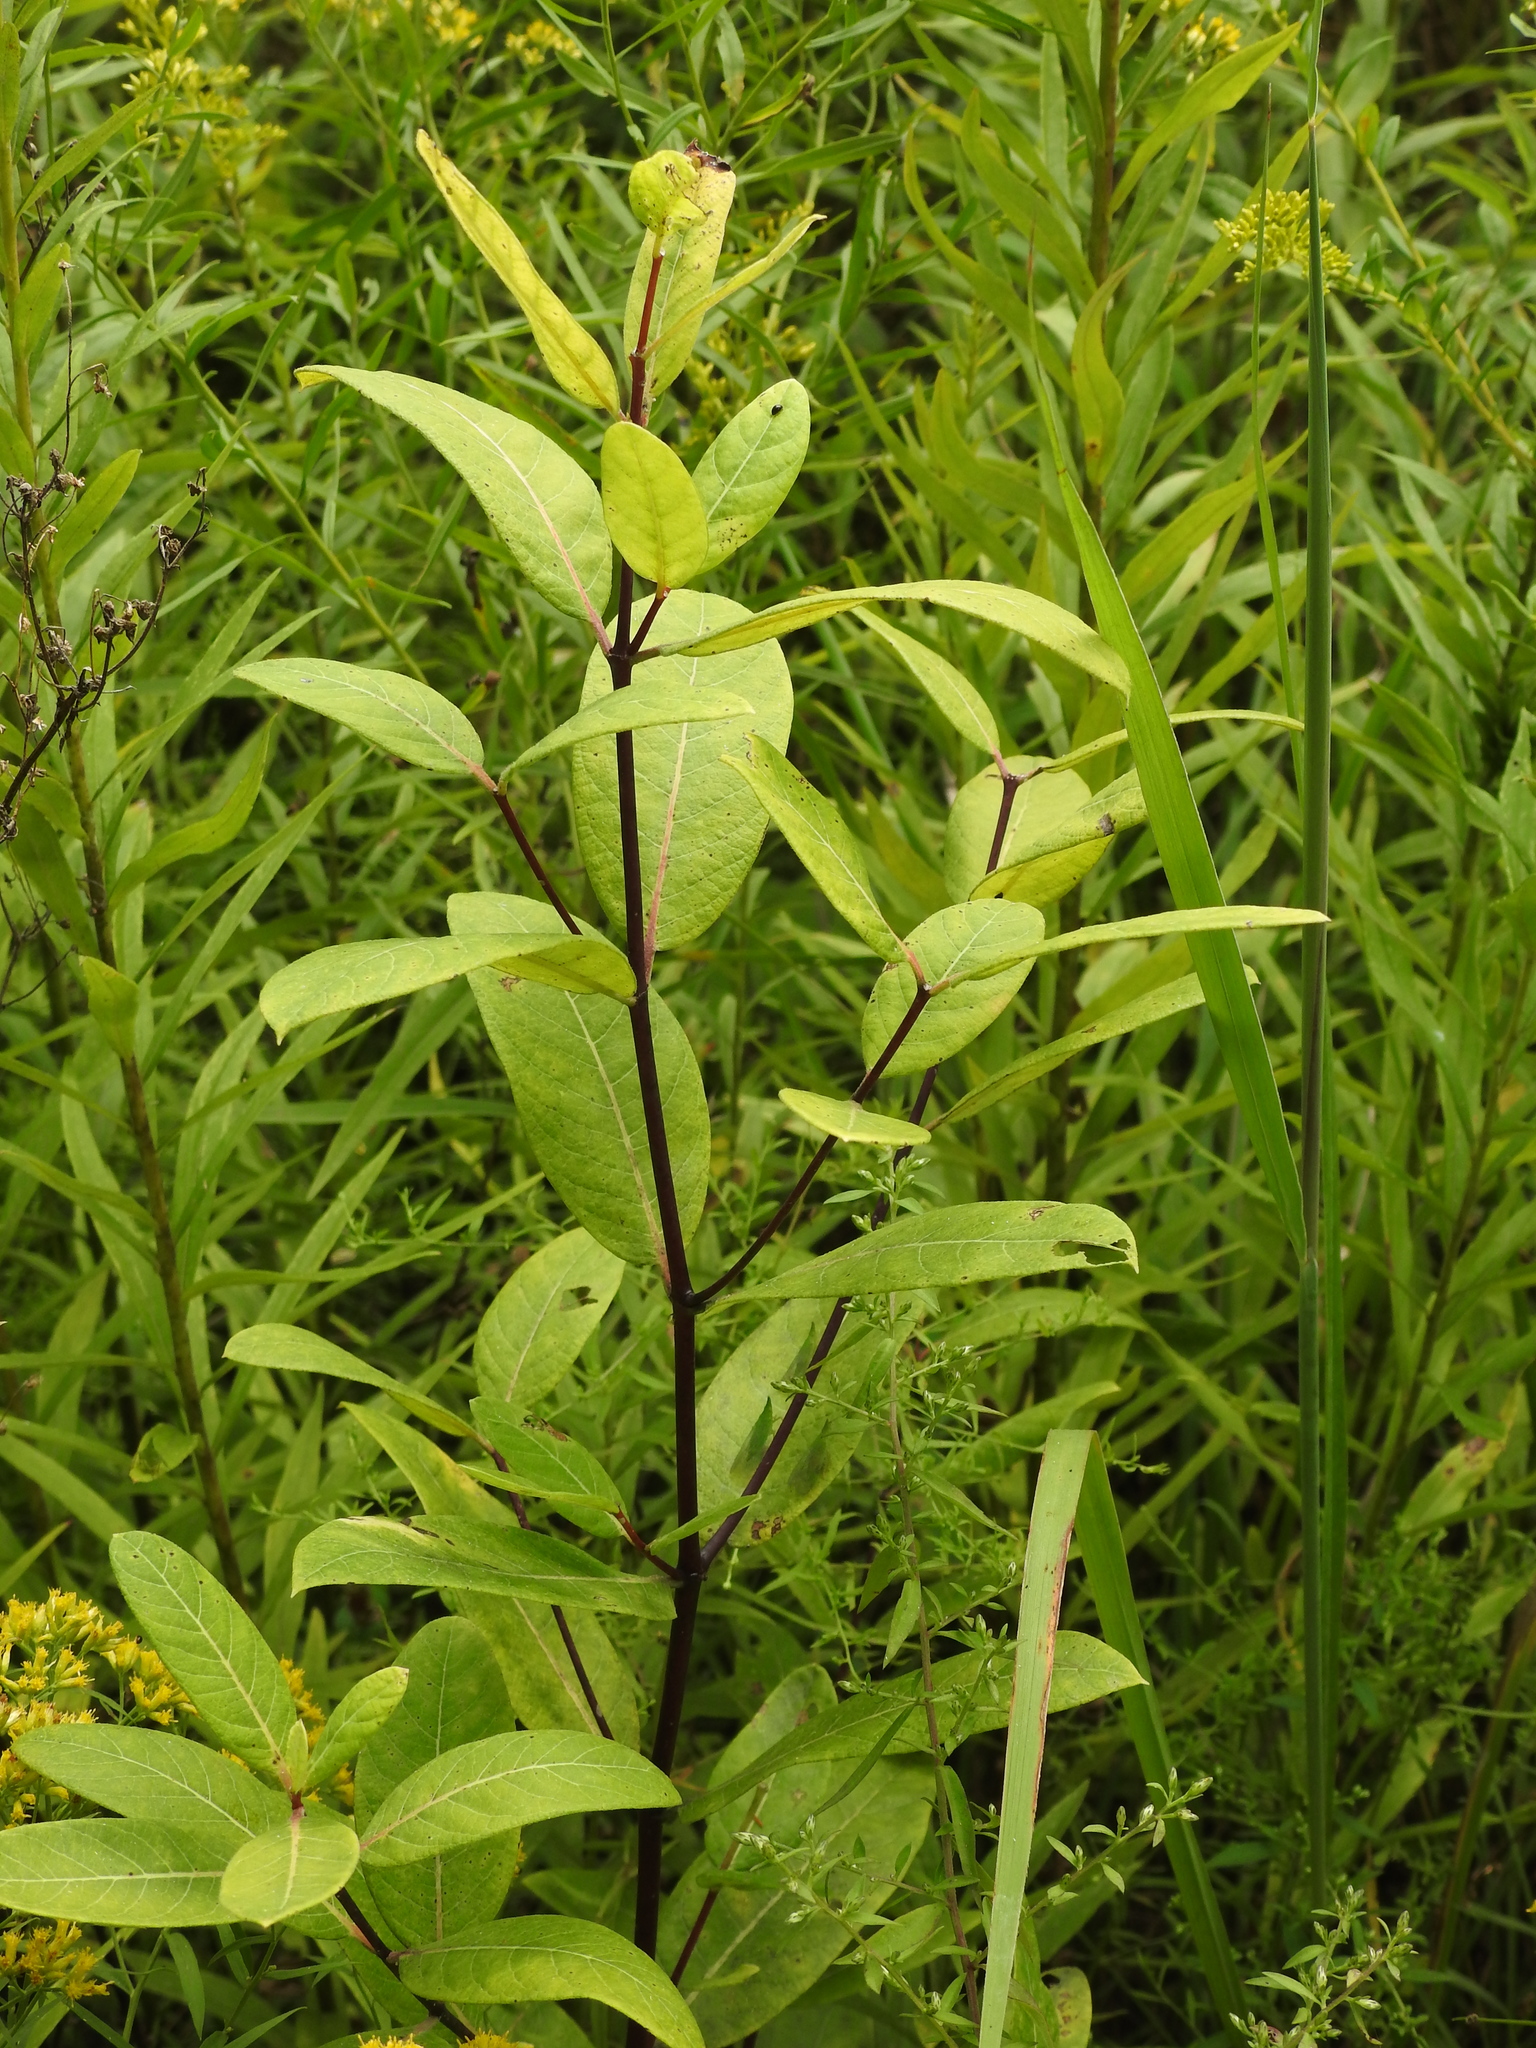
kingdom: Plantae
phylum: Tracheophyta
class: Magnoliopsida
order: Gentianales
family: Apocynaceae
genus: Apocynum
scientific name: Apocynum cannabinum
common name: Hemp dogbane
